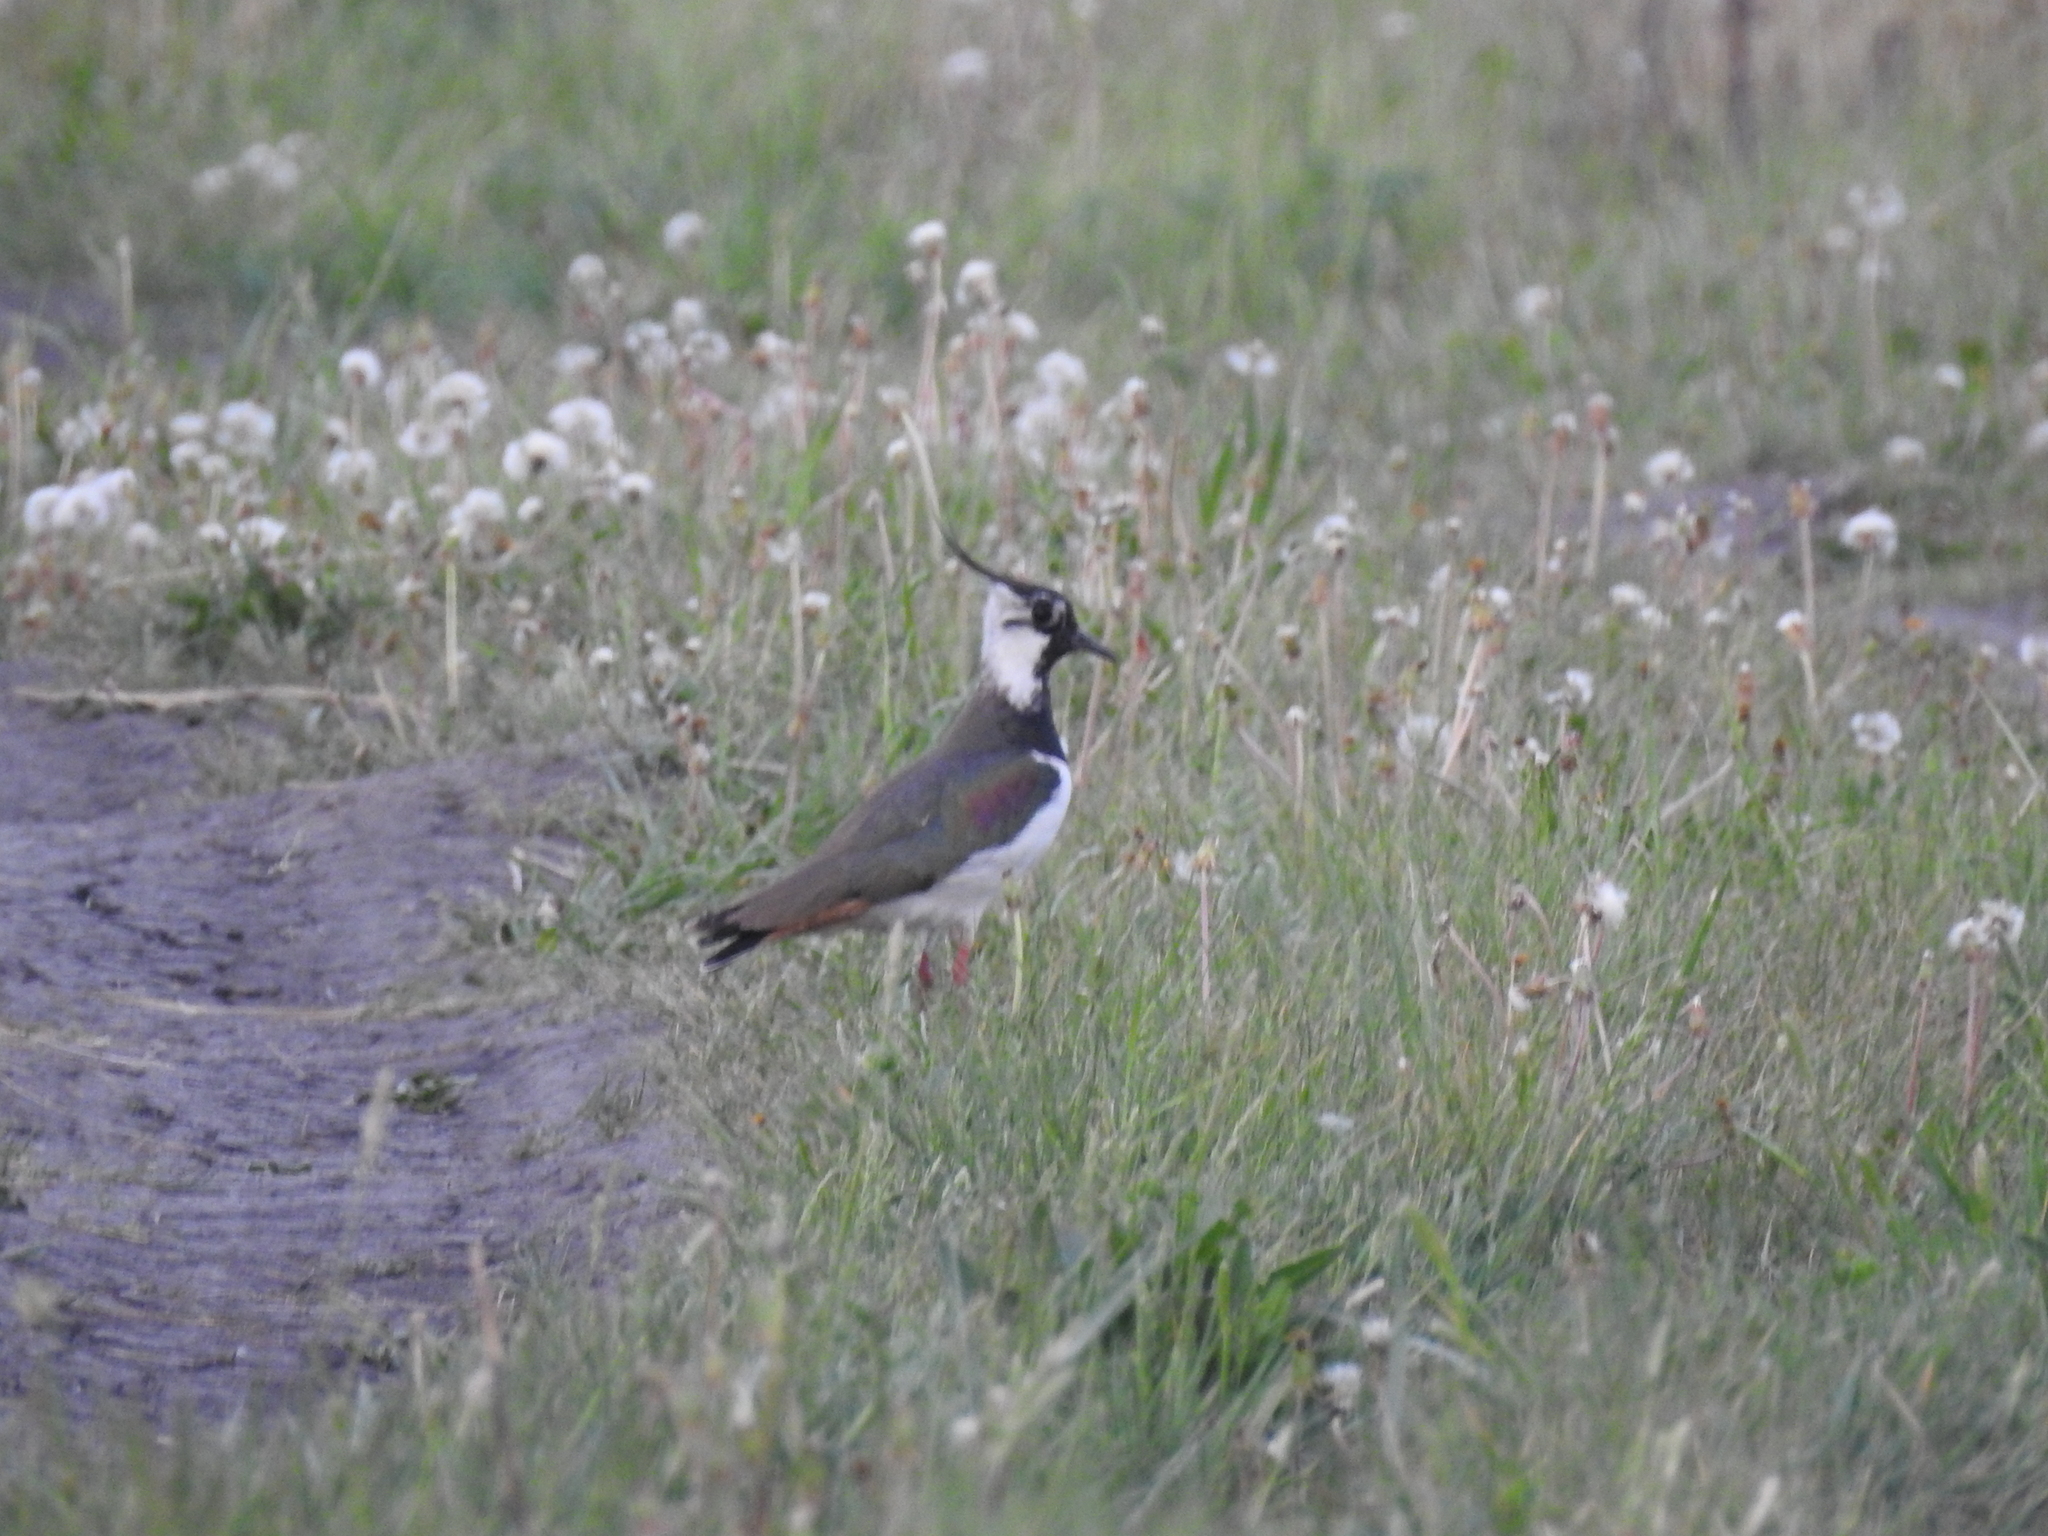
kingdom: Animalia
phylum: Chordata
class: Aves
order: Charadriiformes
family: Charadriidae
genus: Vanellus
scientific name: Vanellus vanellus
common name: Northern lapwing
